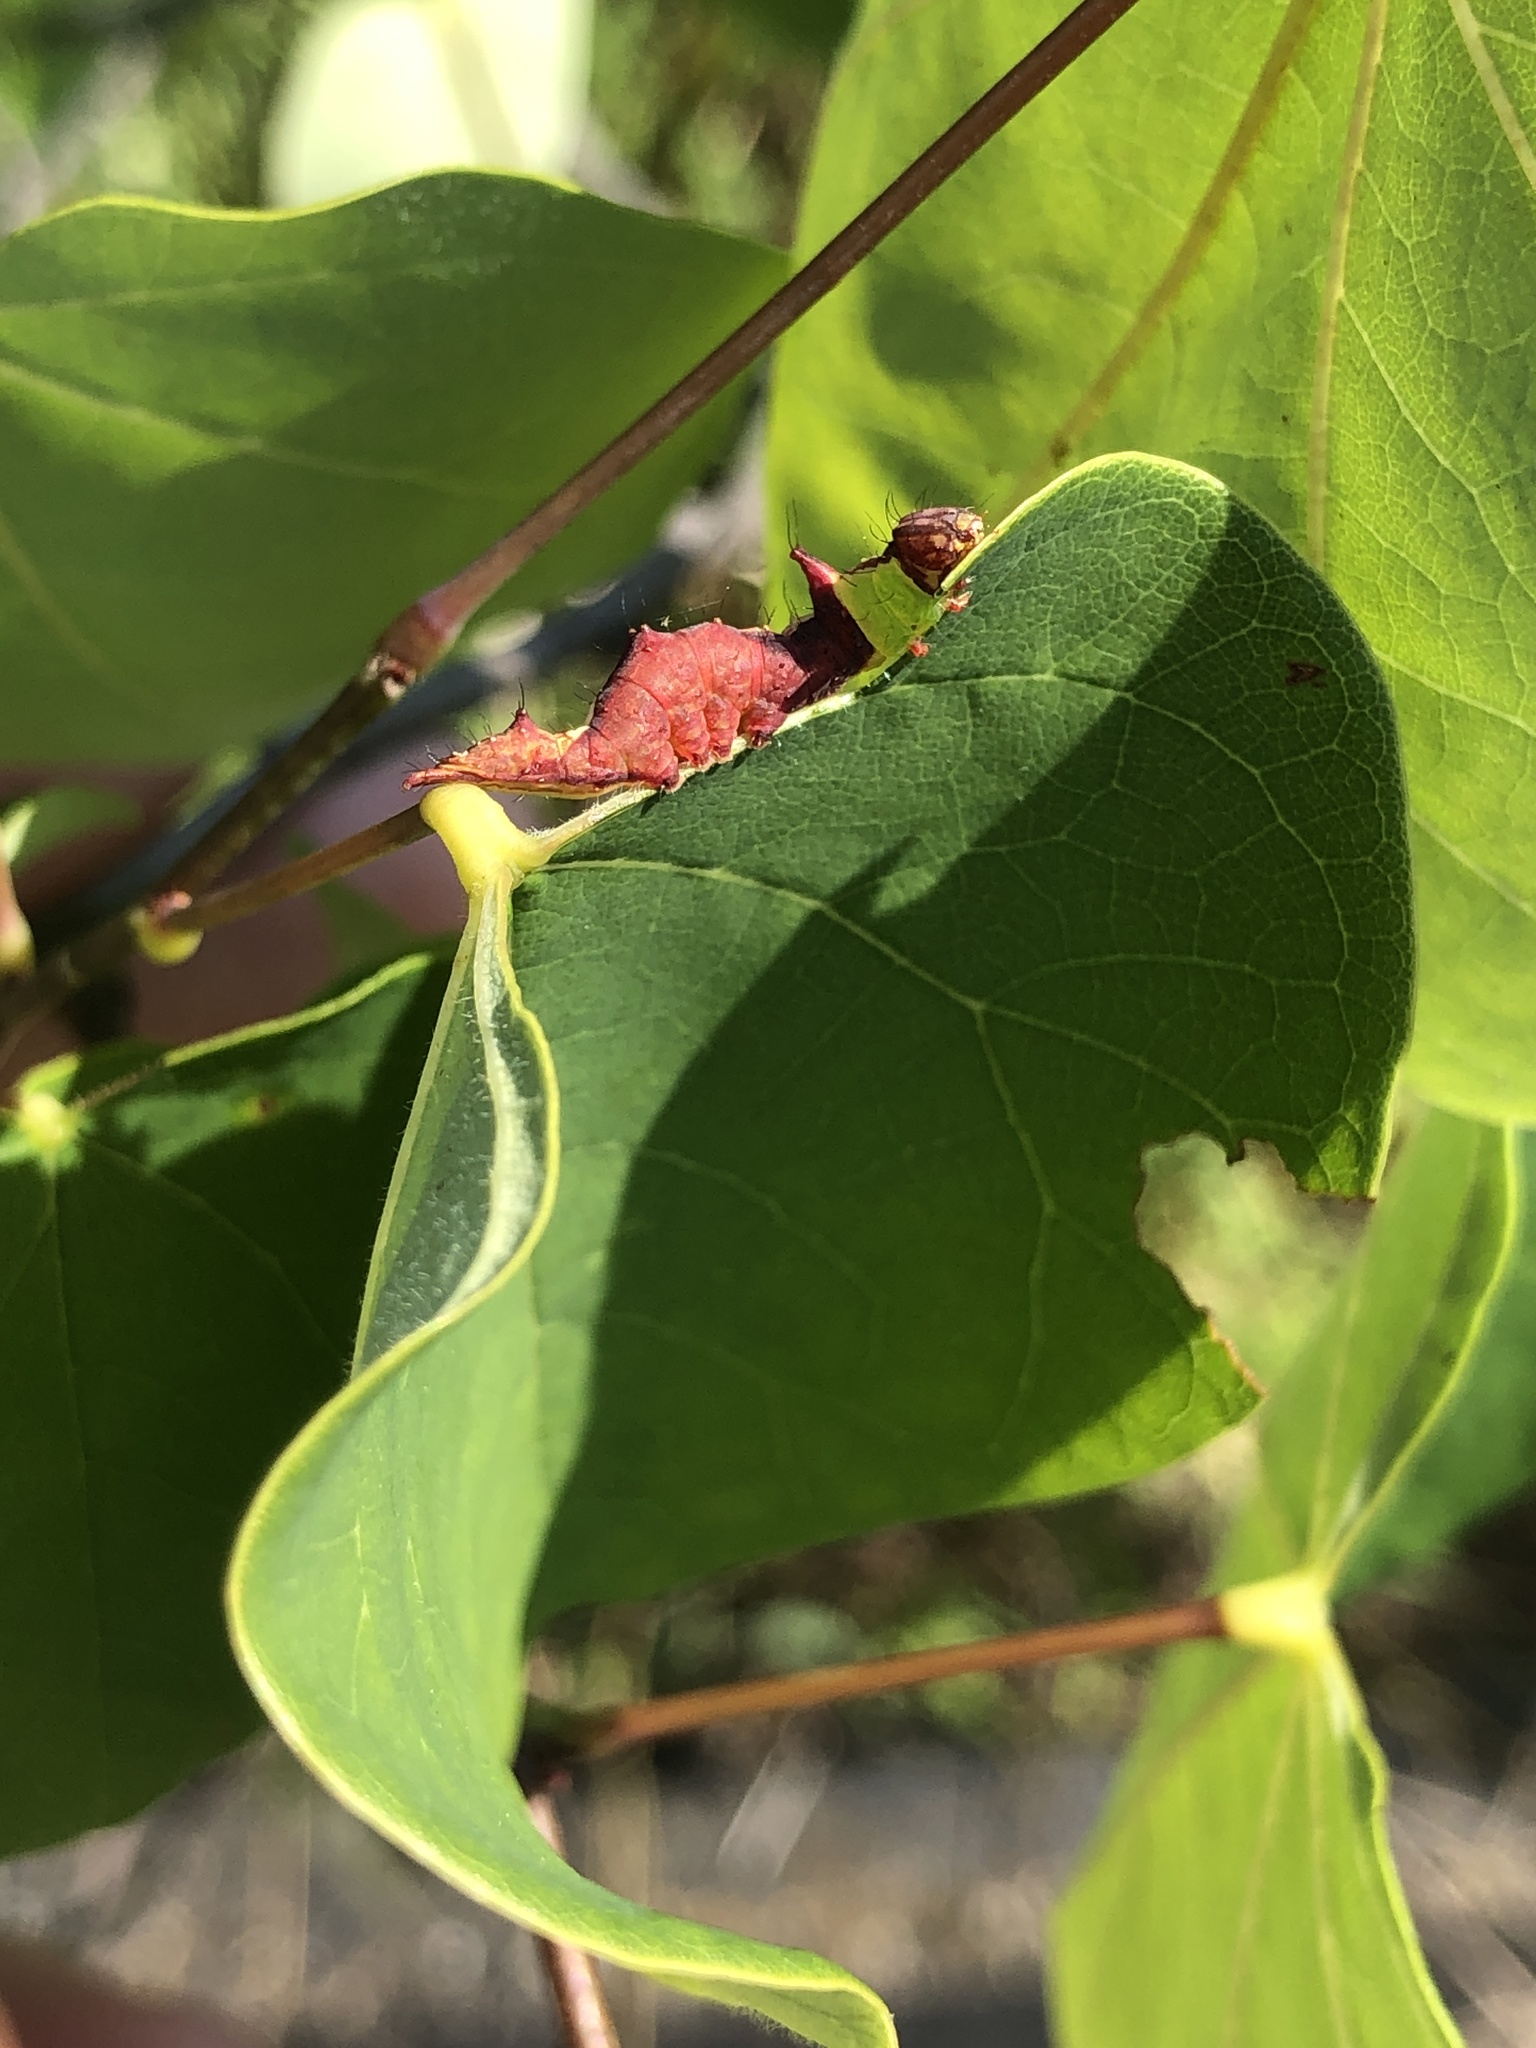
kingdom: Animalia
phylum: Arthropoda
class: Insecta
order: Lepidoptera
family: Notodontidae
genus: Schizura
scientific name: Schizura ipomaeae
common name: Morning-glory prominent
